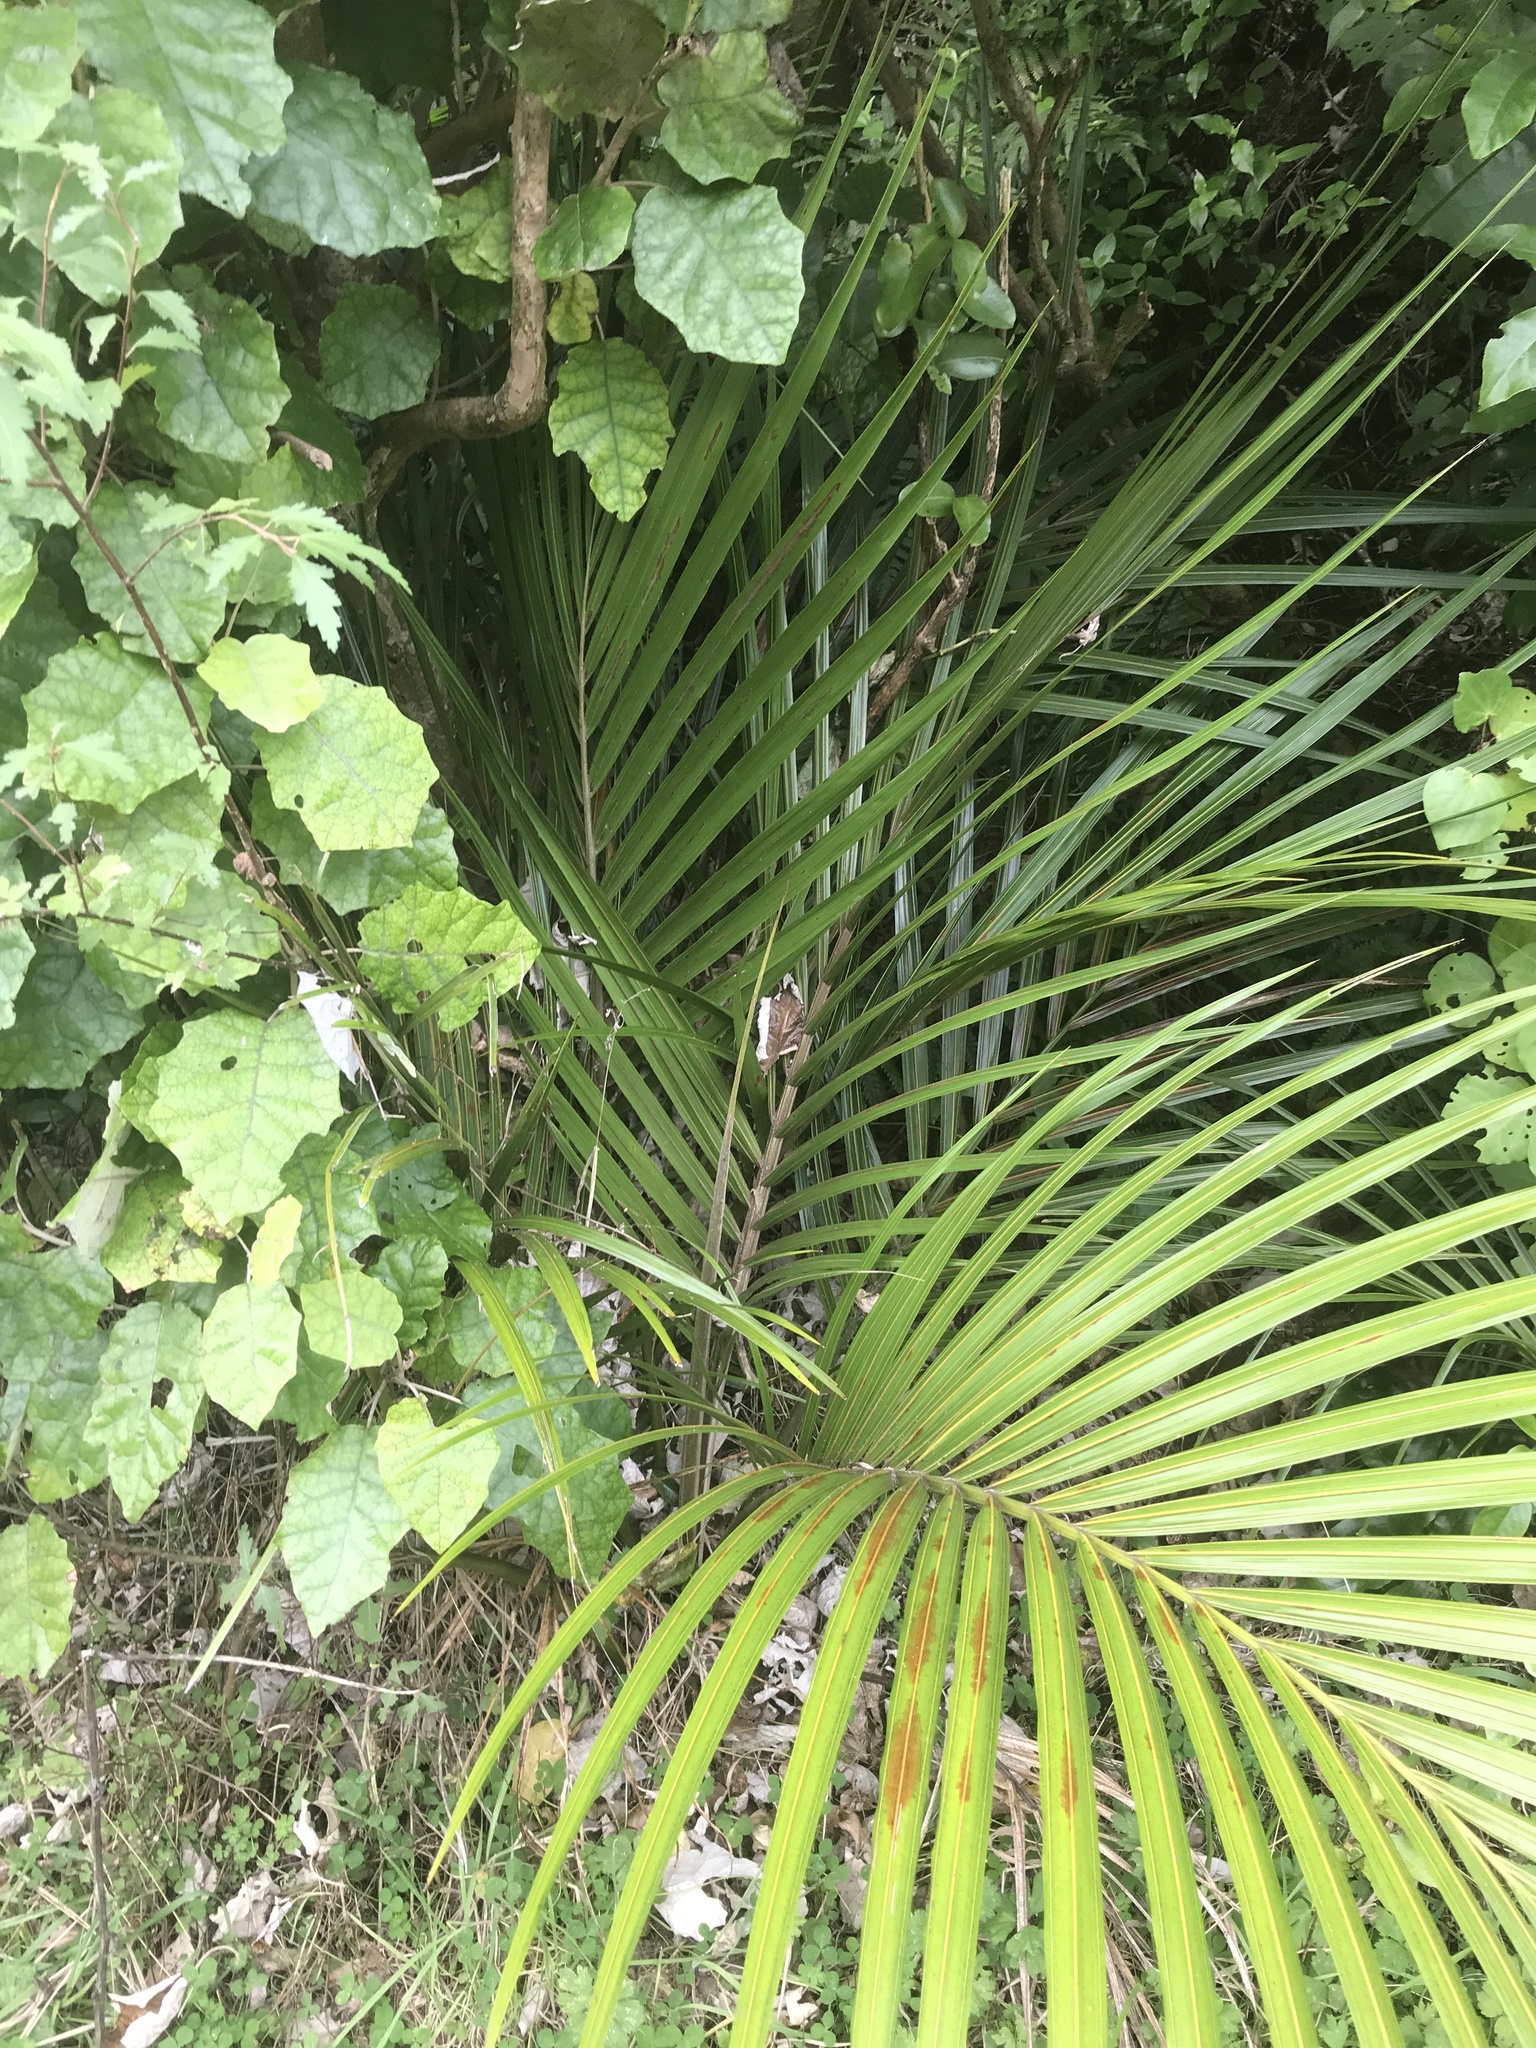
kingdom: Plantae
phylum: Tracheophyta
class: Liliopsida
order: Arecales
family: Arecaceae
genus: Rhopalostylis
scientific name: Rhopalostylis sapida
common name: Feather-duster palm
